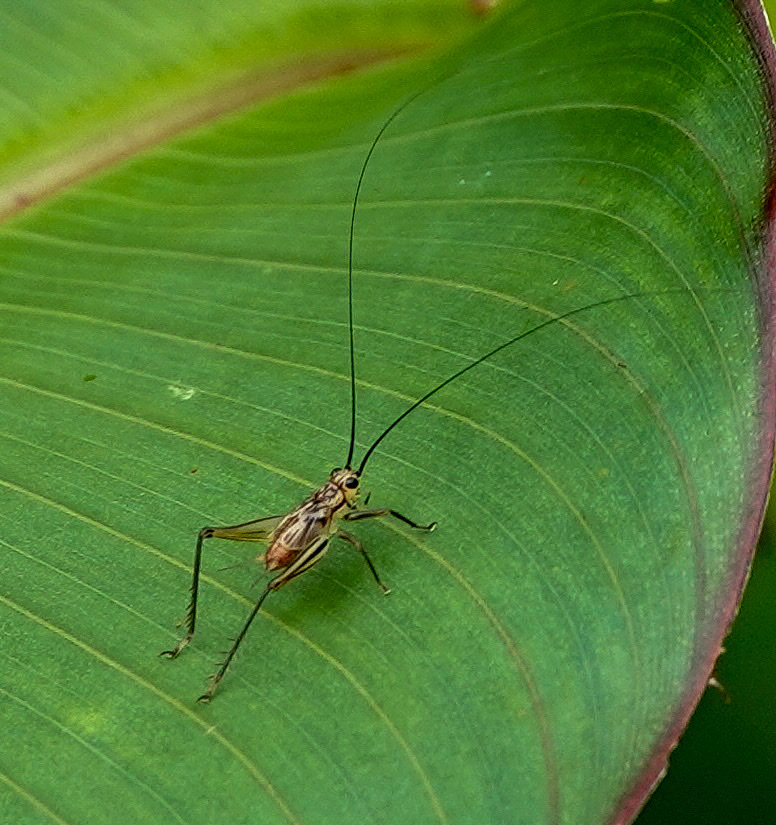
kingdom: Animalia
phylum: Arthropoda
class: Insecta
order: Orthoptera
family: Trigonidiidae
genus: Nanixipha
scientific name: Nanixipha nahoa
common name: Truncated true katydid
